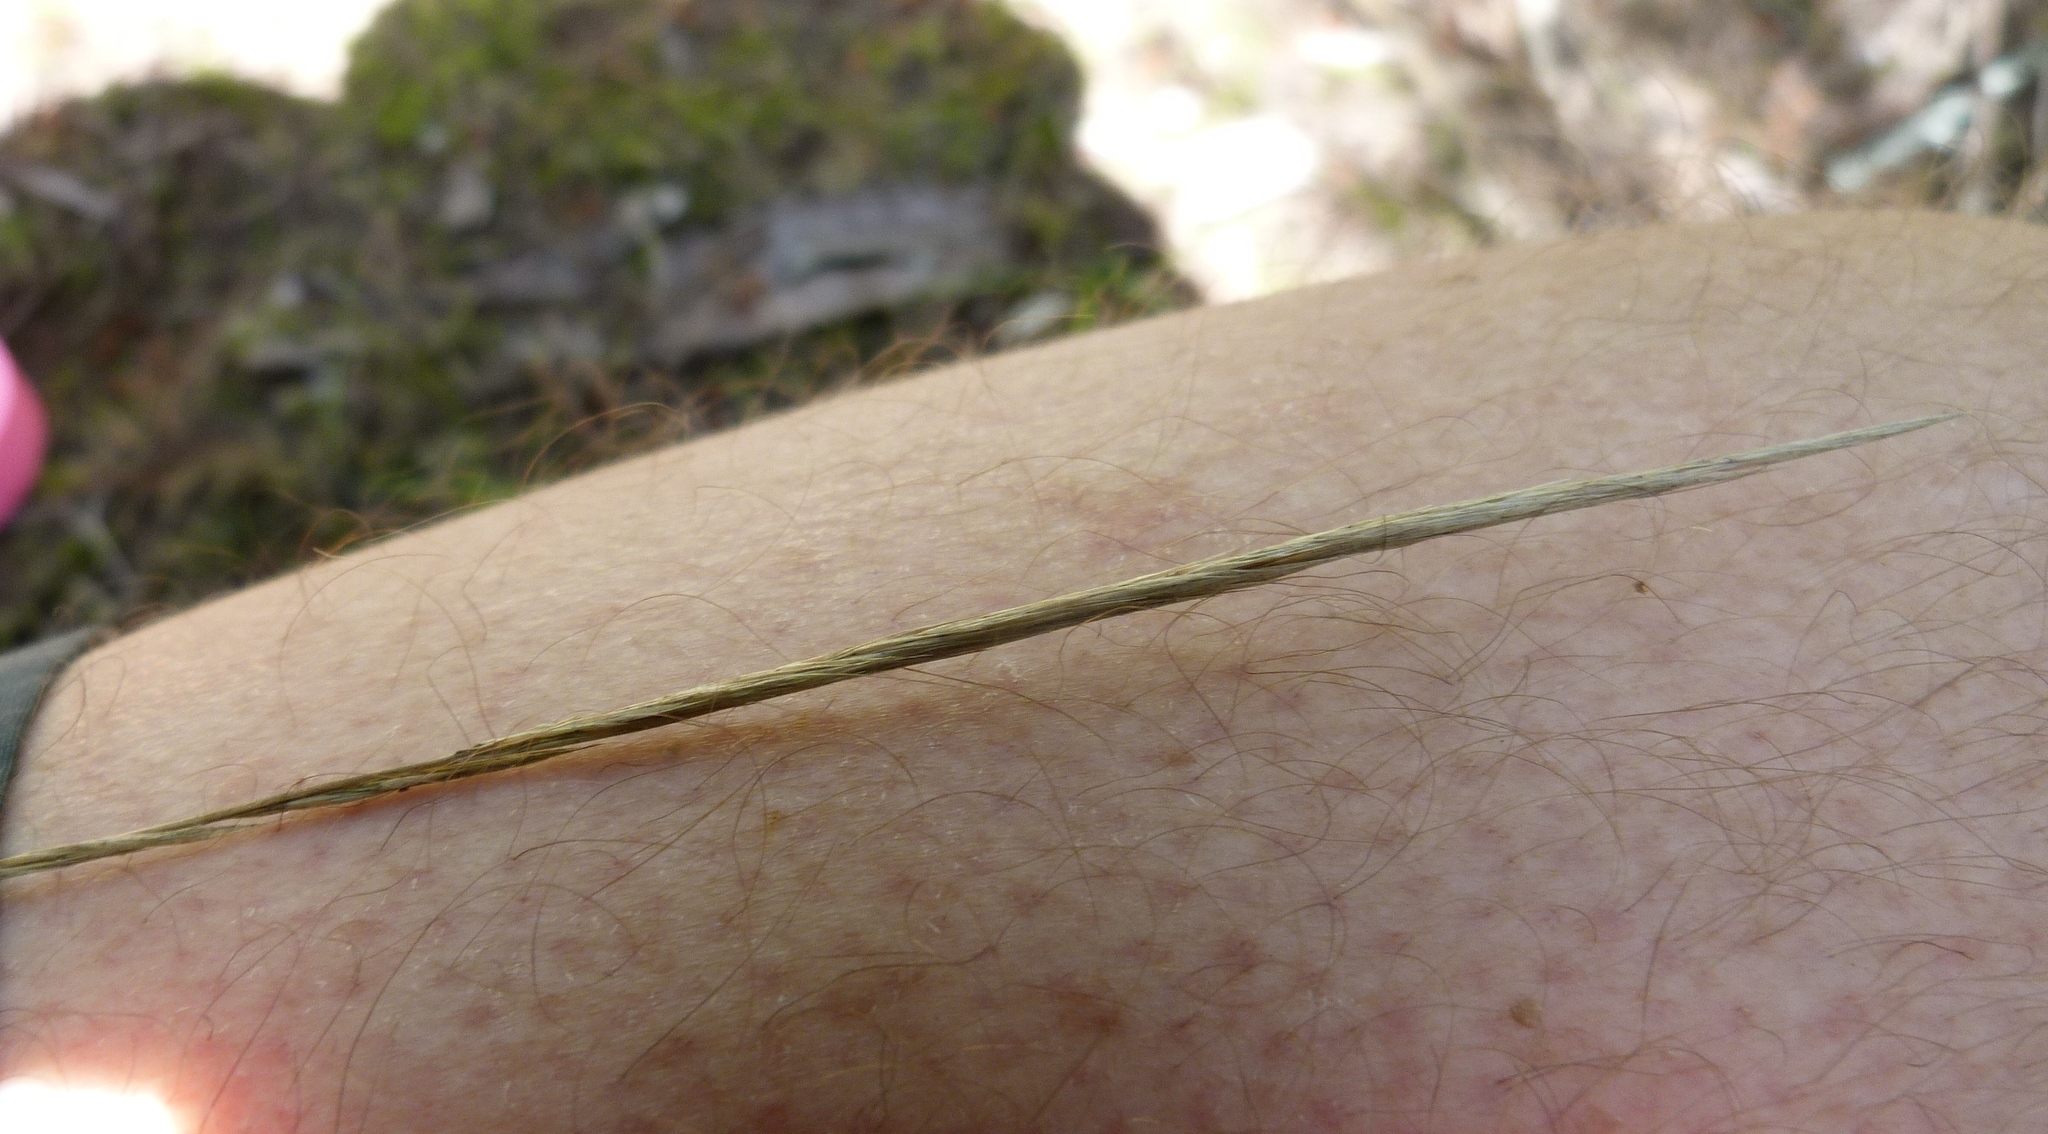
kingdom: Plantae
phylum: Tracheophyta
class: Liliopsida
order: Poales
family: Poaceae
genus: Dichelachne
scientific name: Dichelachne crinita
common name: Clovenfoot plumegrass
